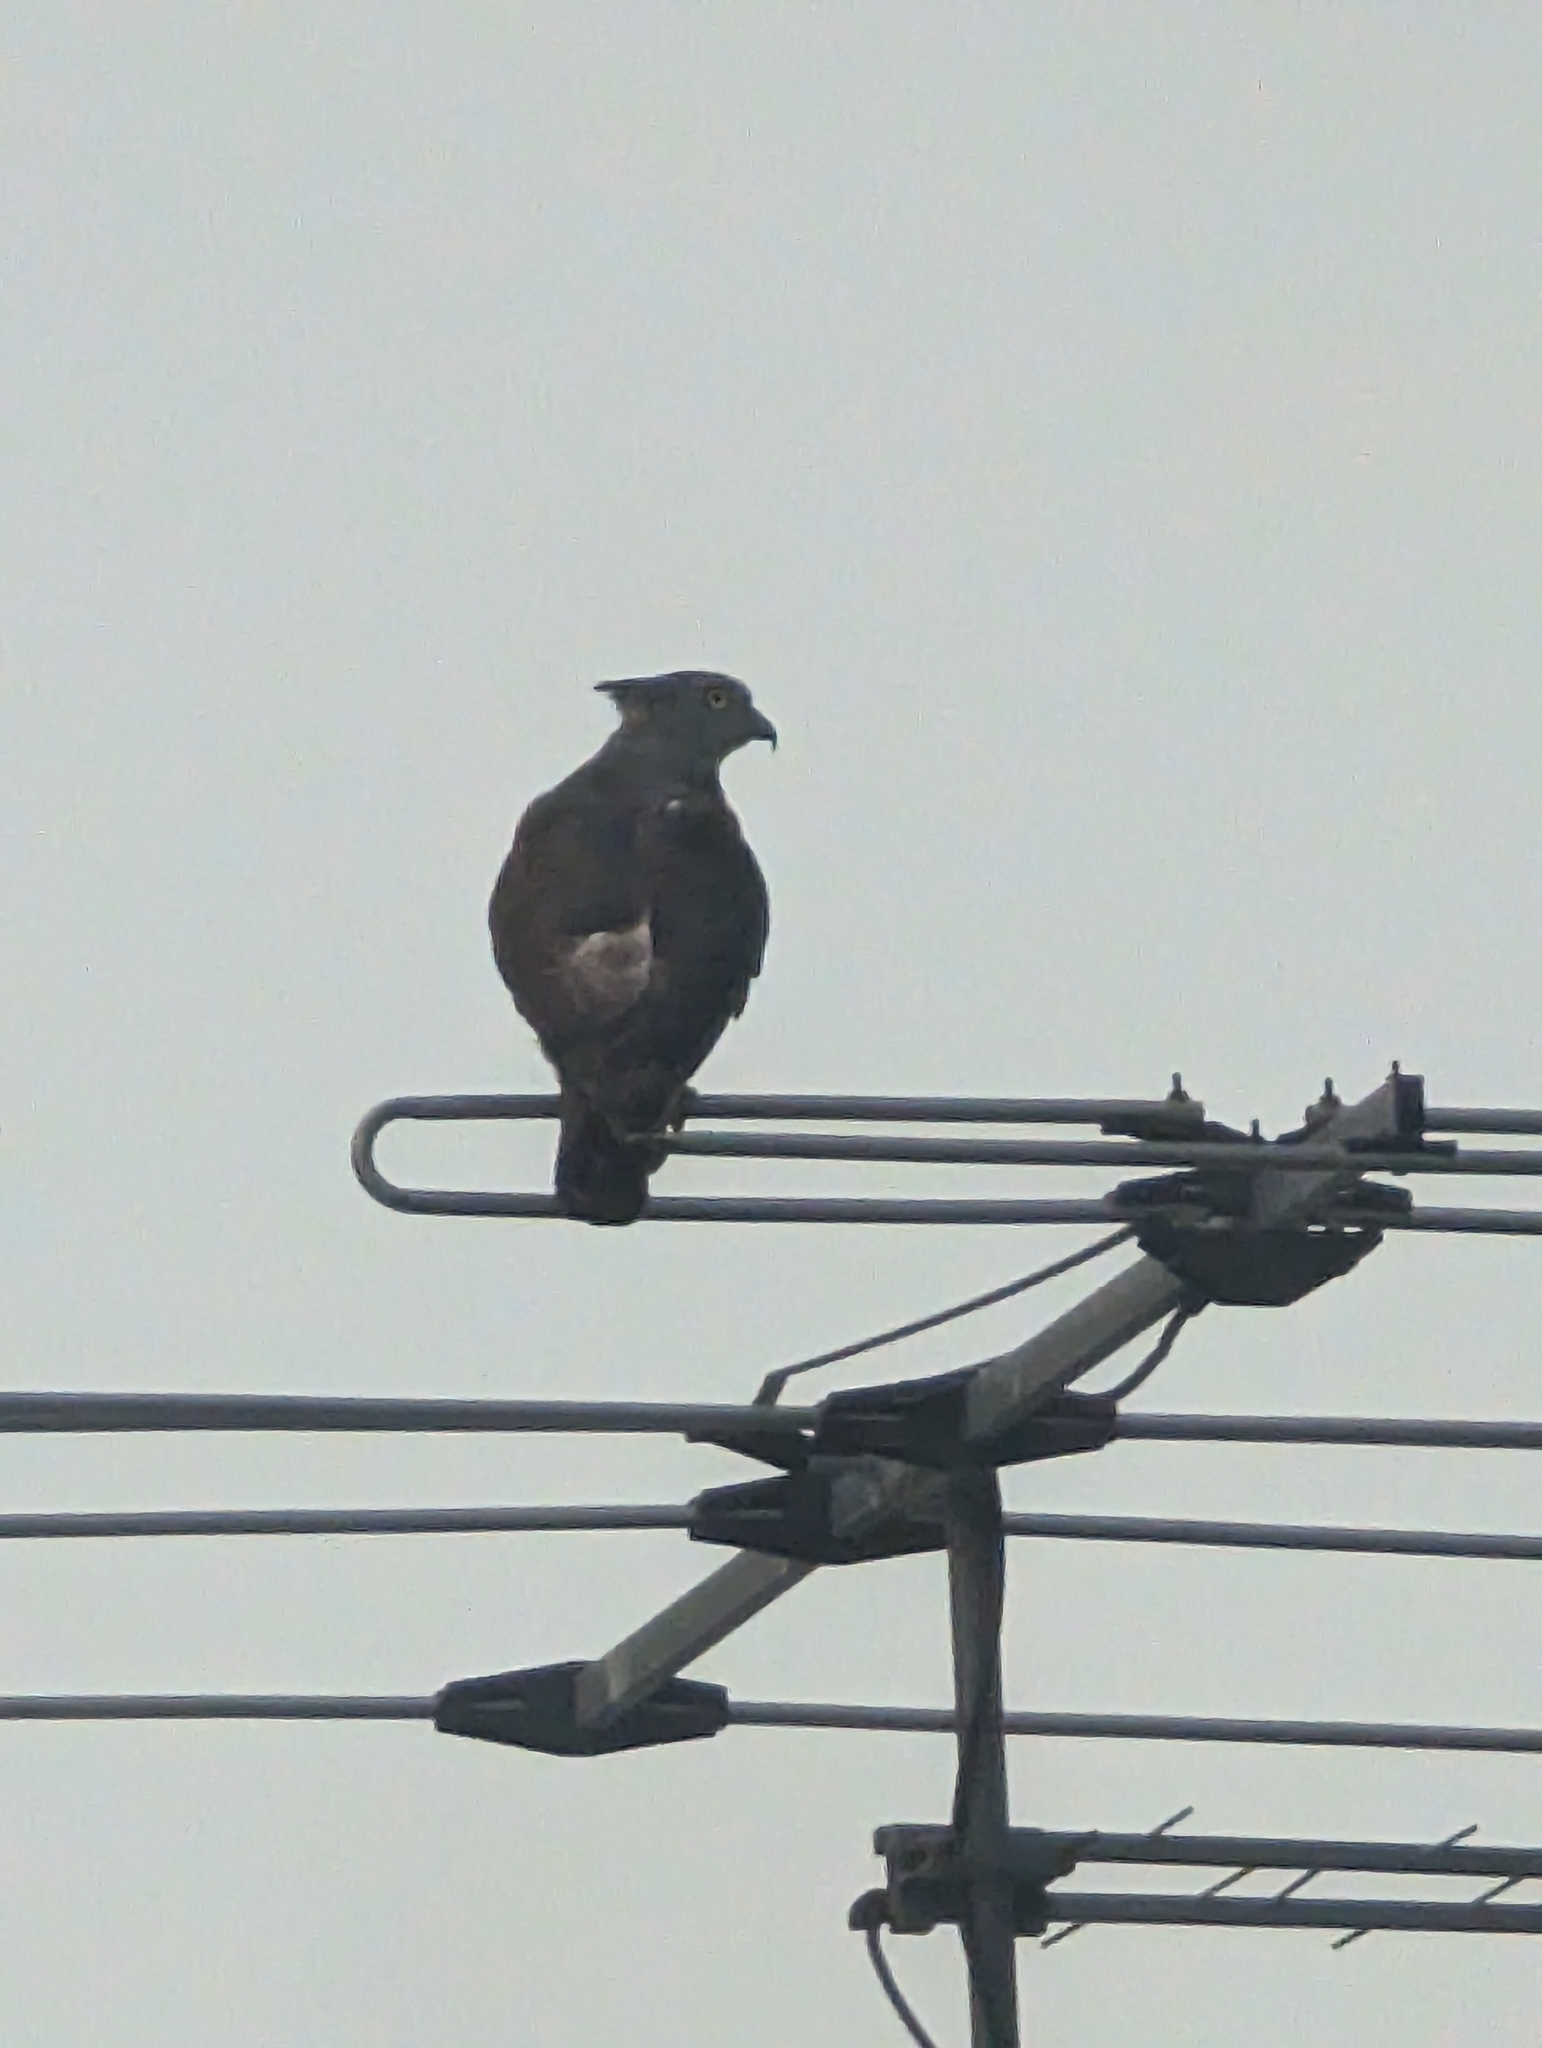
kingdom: Animalia
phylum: Chordata
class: Aves
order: Accipitriformes
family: Accipitridae
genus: Aviceda
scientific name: Aviceda subcristata
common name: Pacific baza
